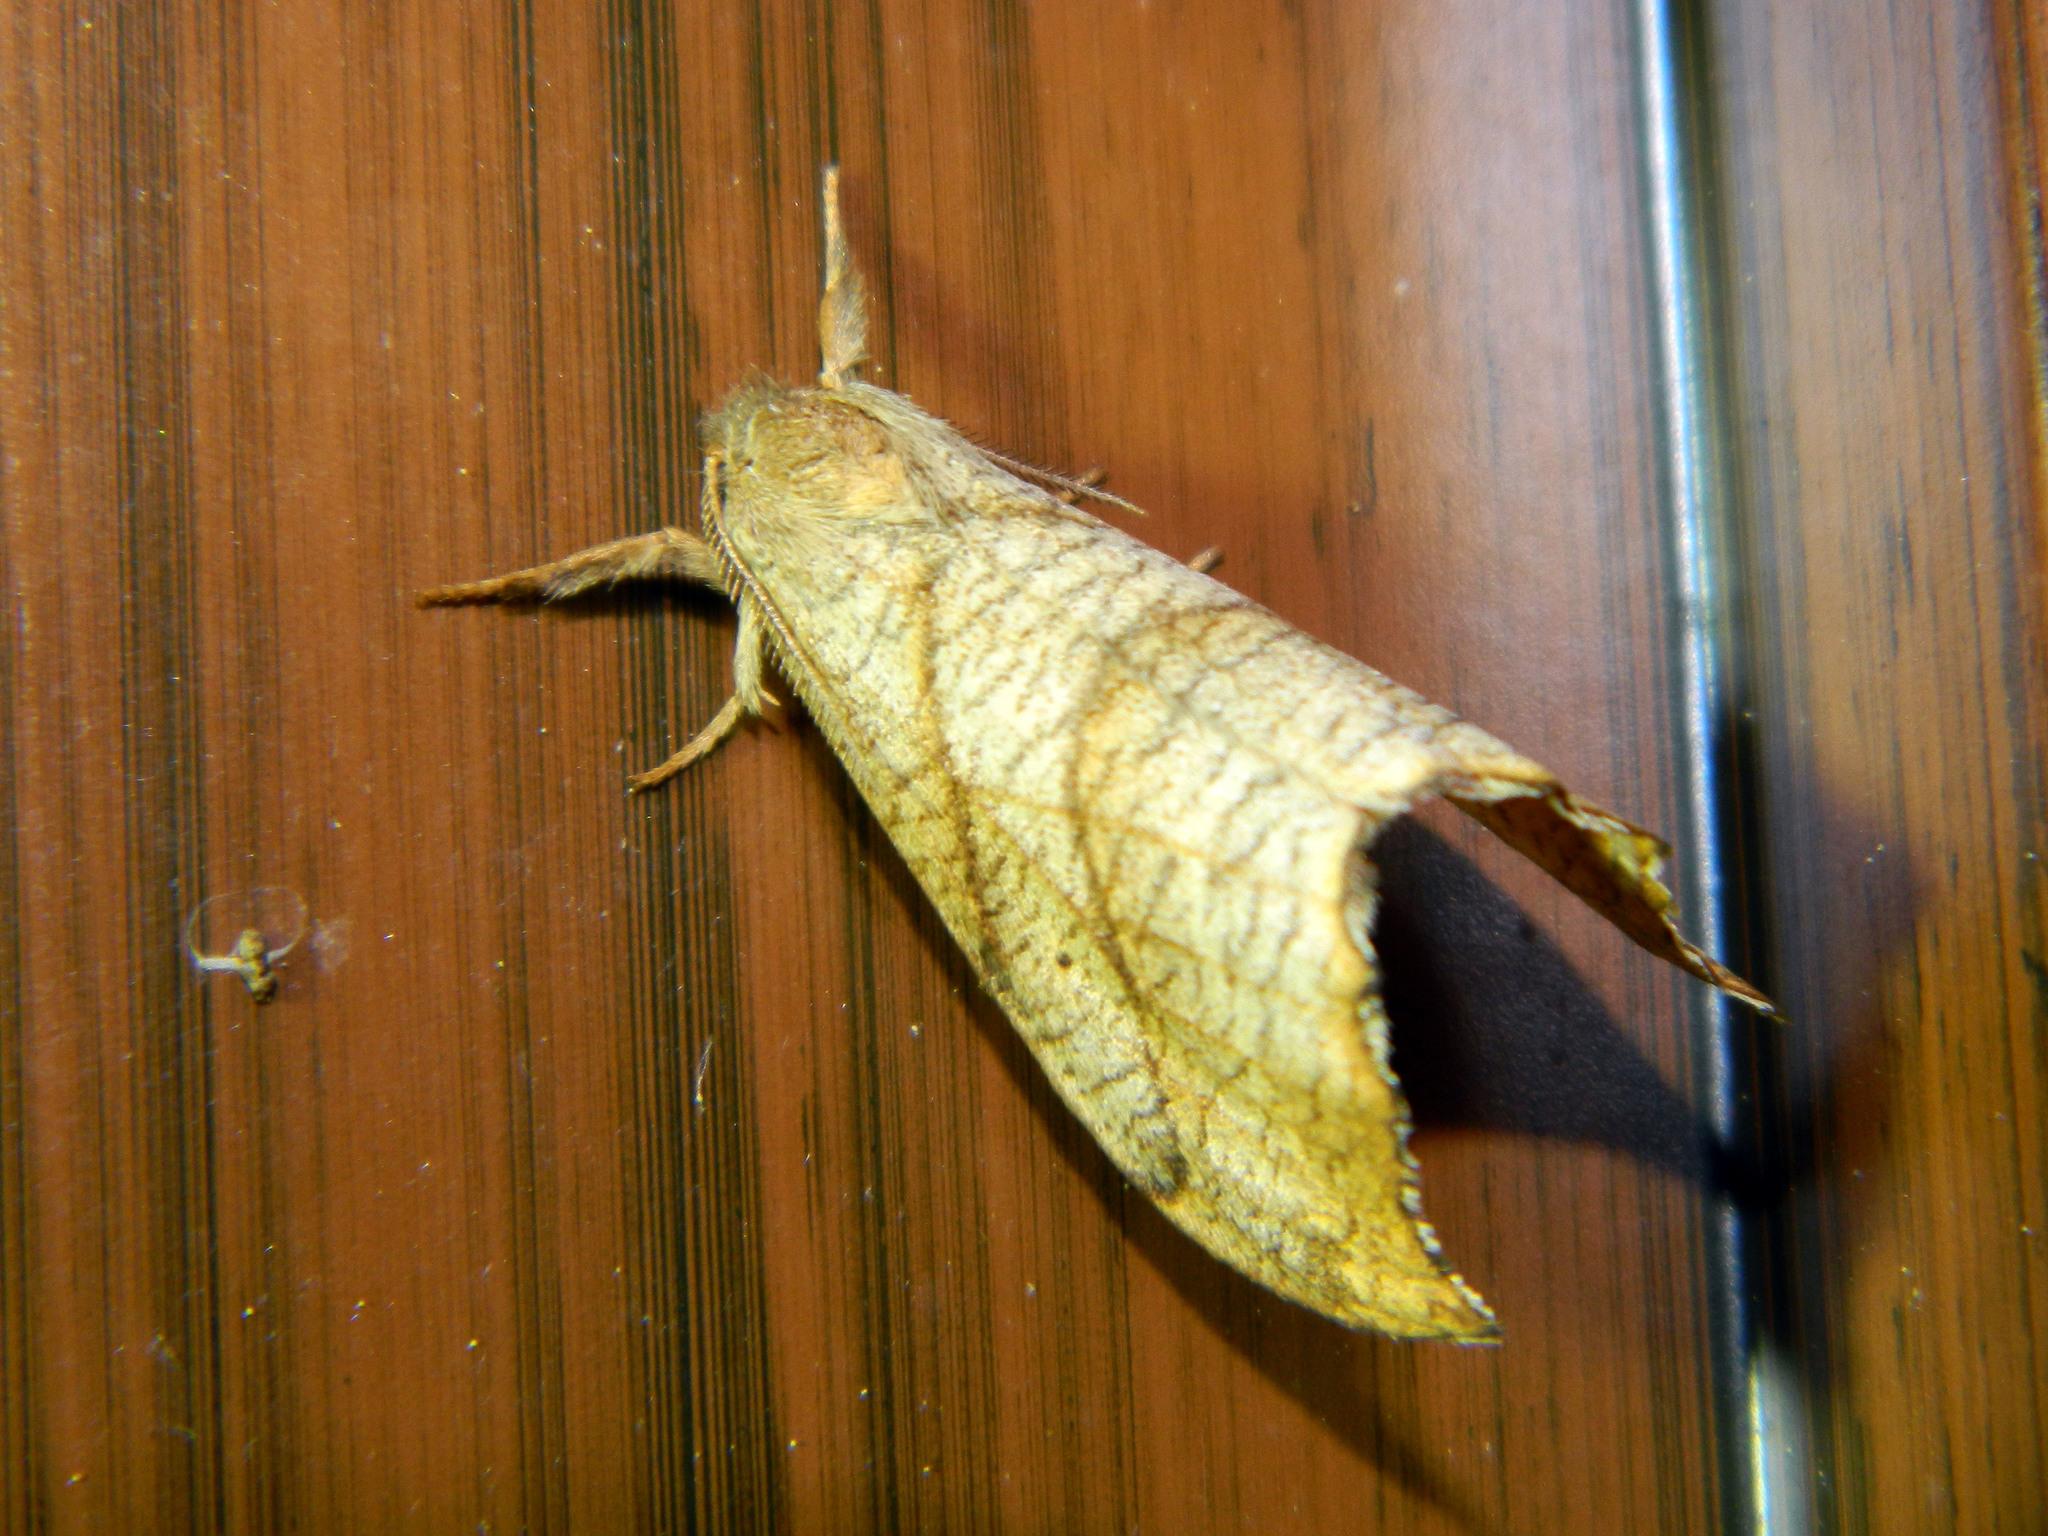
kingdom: Animalia
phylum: Arthropoda
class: Insecta
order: Lepidoptera
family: Drepanidae
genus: Falcaria
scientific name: Falcaria bilineata
